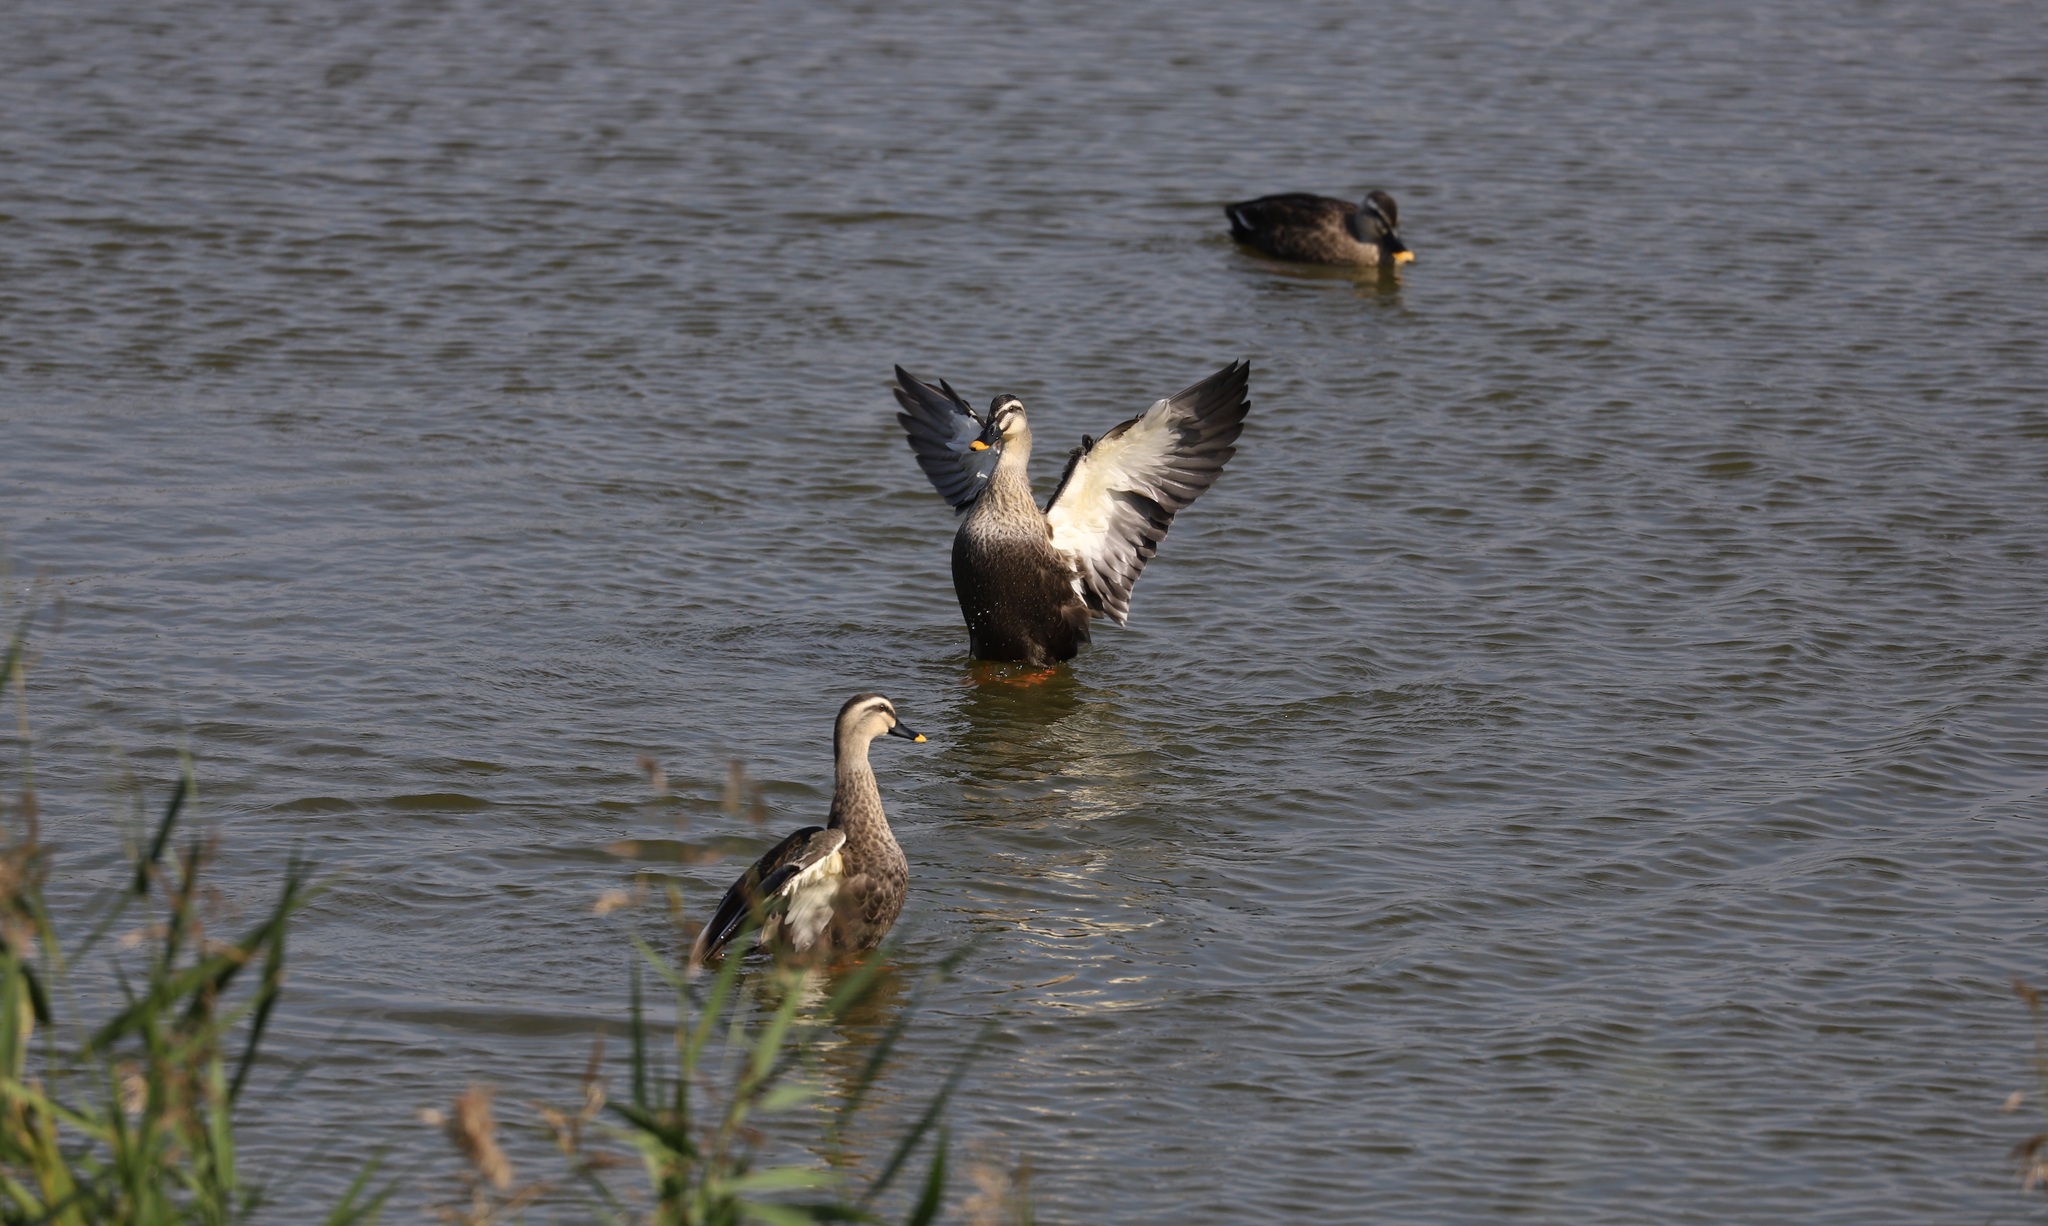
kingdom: Animalia
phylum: Chordata
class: Aves
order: Anseriformes
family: Anatidae
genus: Anas
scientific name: Anas zonorhyncha
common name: Eastern spot-billed duck
